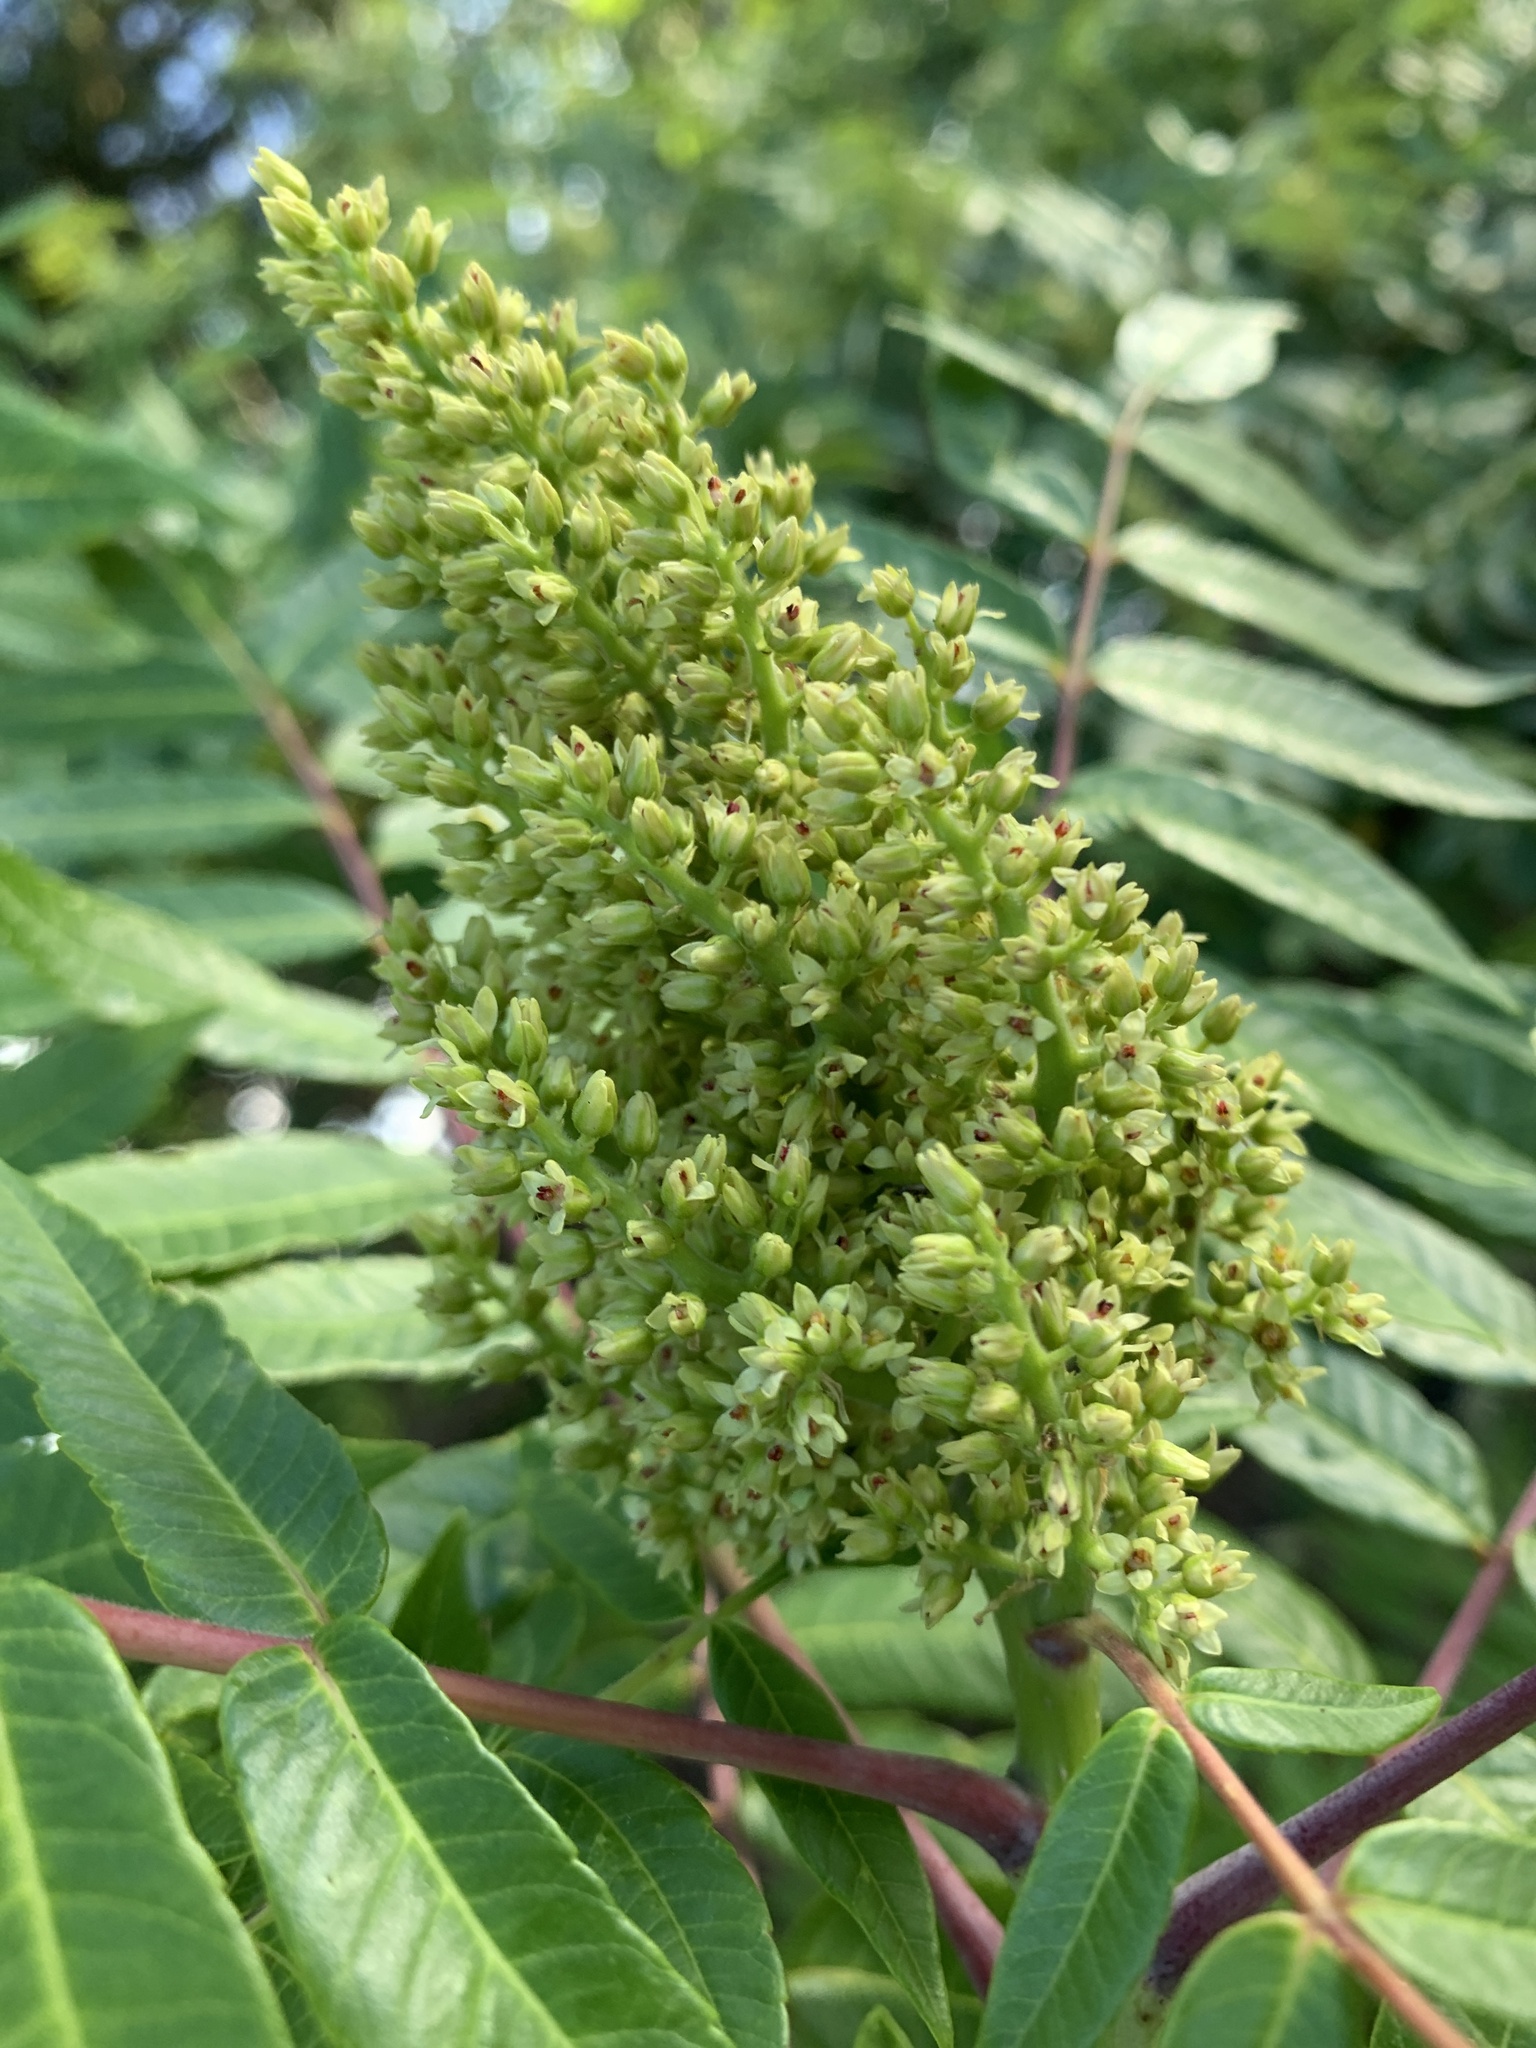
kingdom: Plantae
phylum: Tracheophyta
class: Magnoliopsida
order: Sapindales
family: Anacardiaceae
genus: Rhus
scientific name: Rhus glabra
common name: Scarlet sumac
